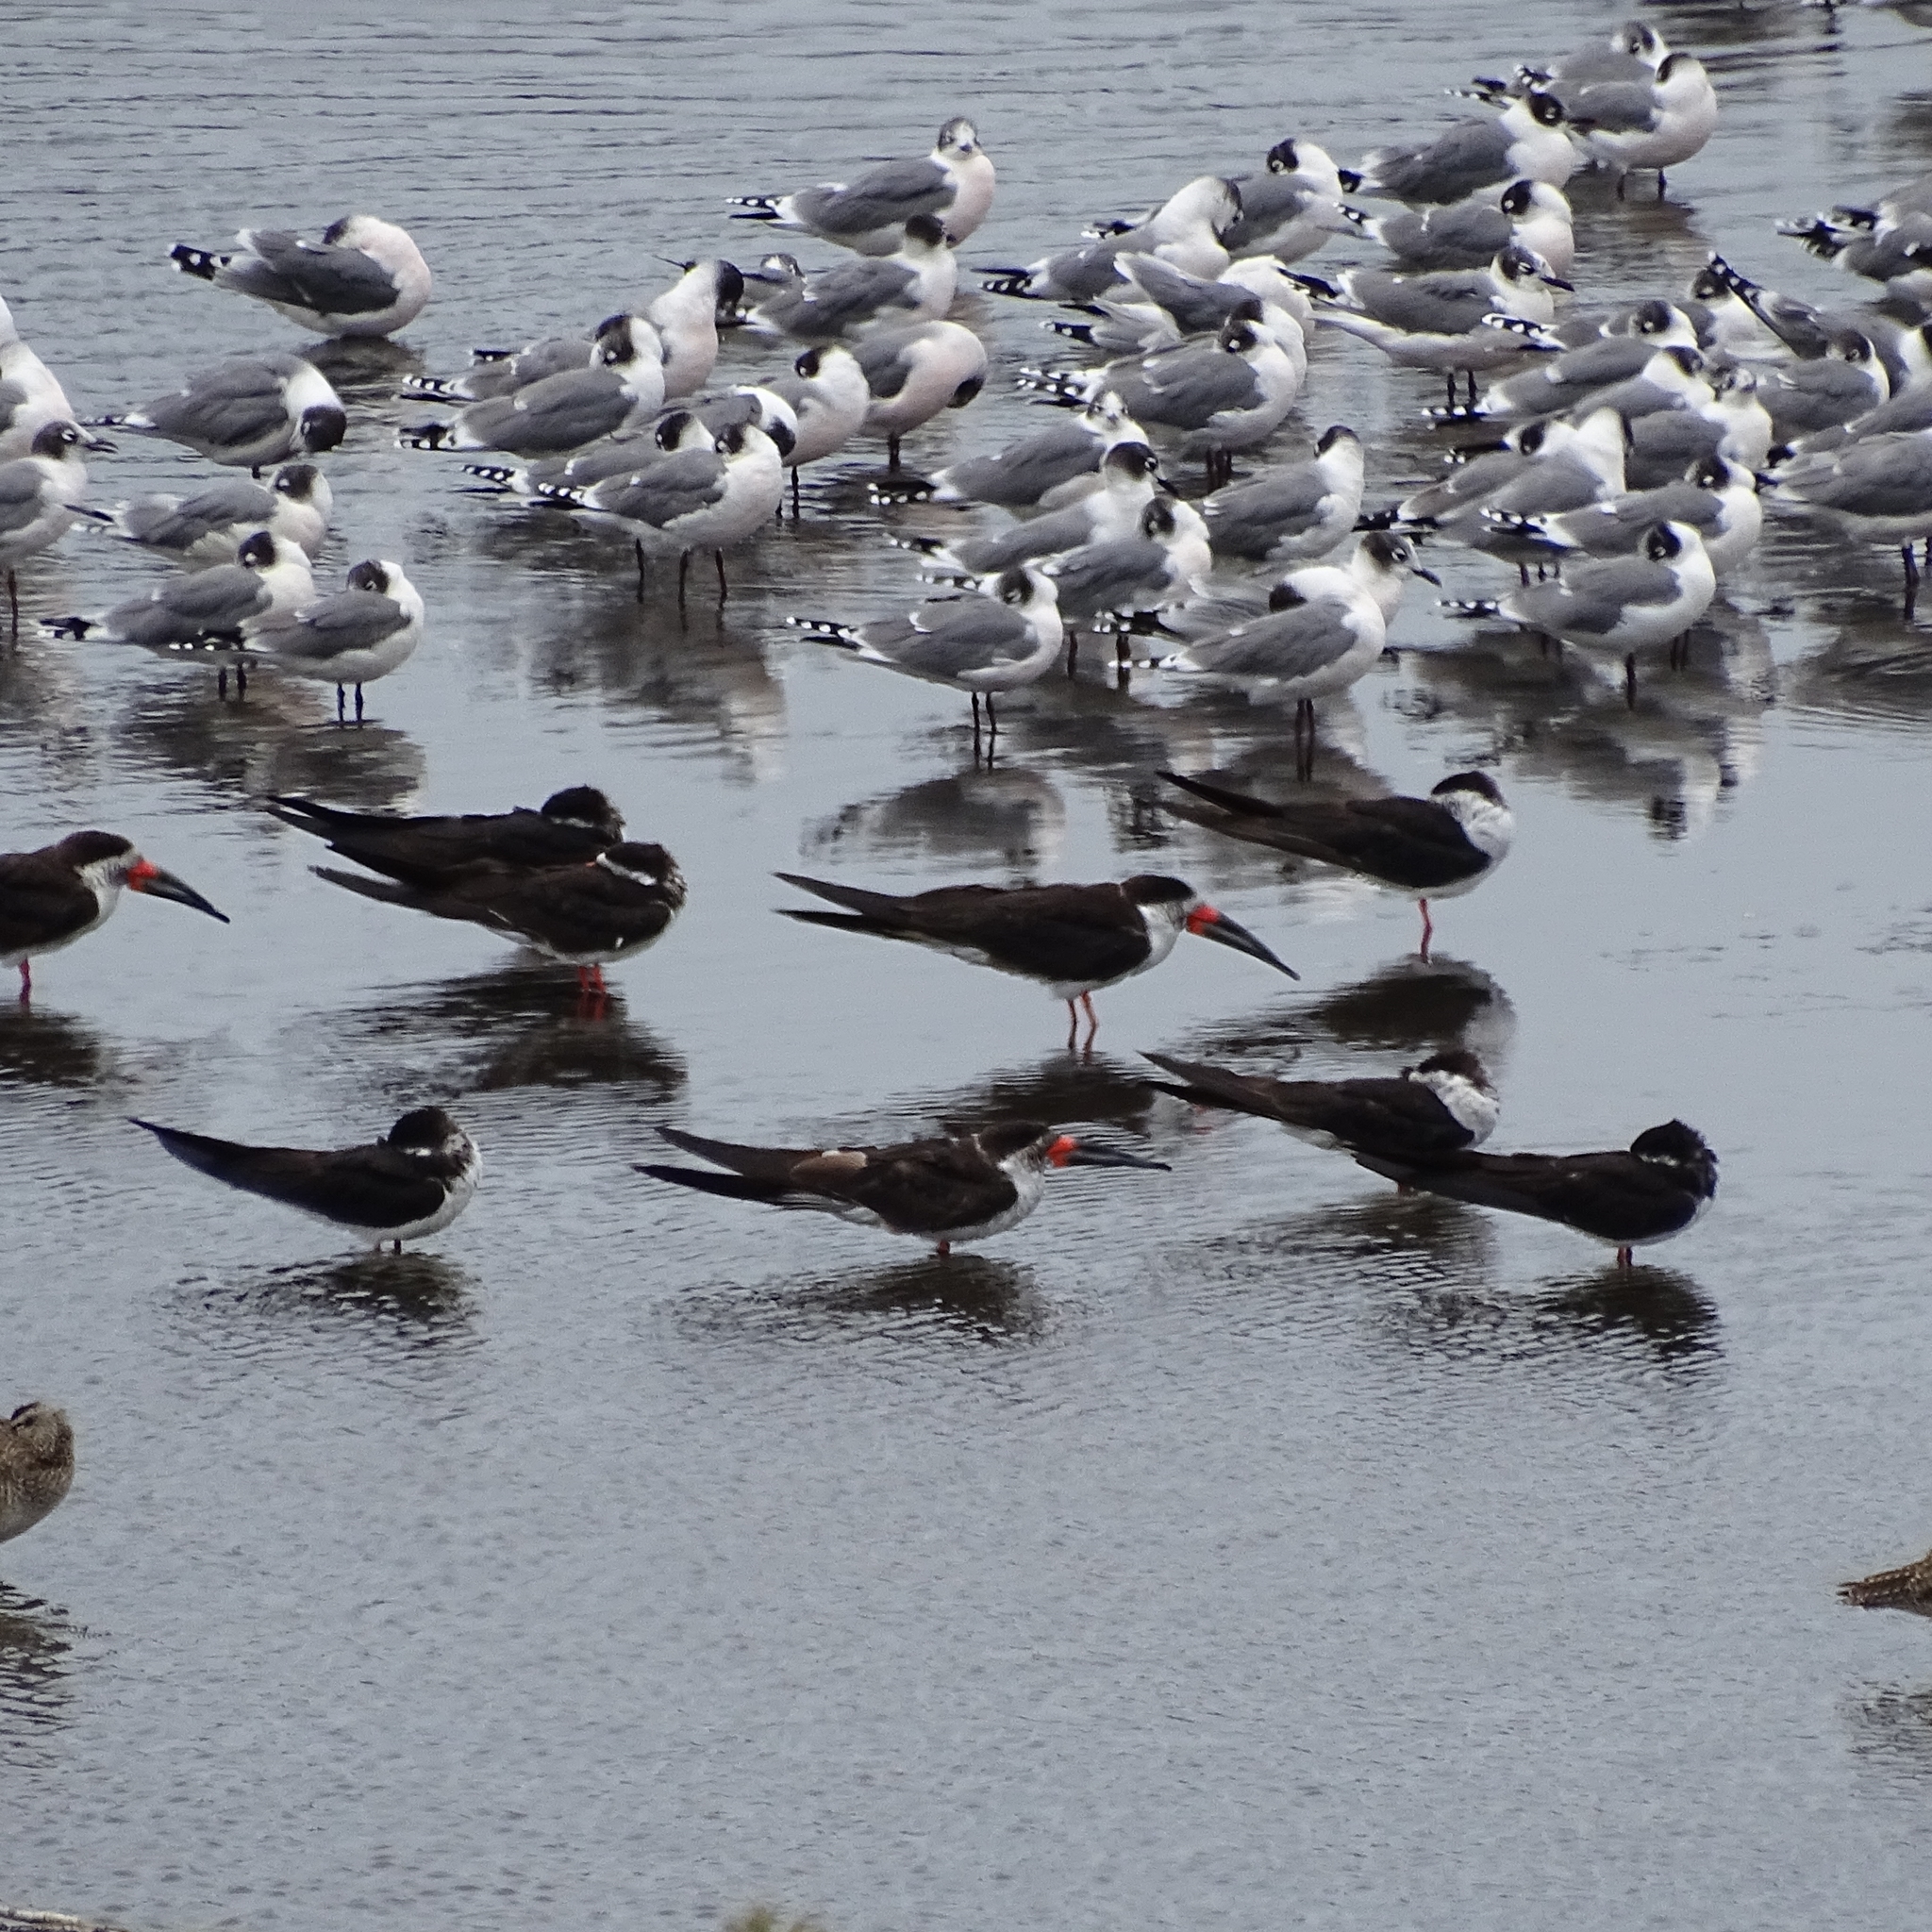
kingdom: Animalia
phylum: Chordata
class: Aves
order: Charadriiformes
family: Laridae
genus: Rynchops
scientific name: Rynchops niger
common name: Black skimmer
